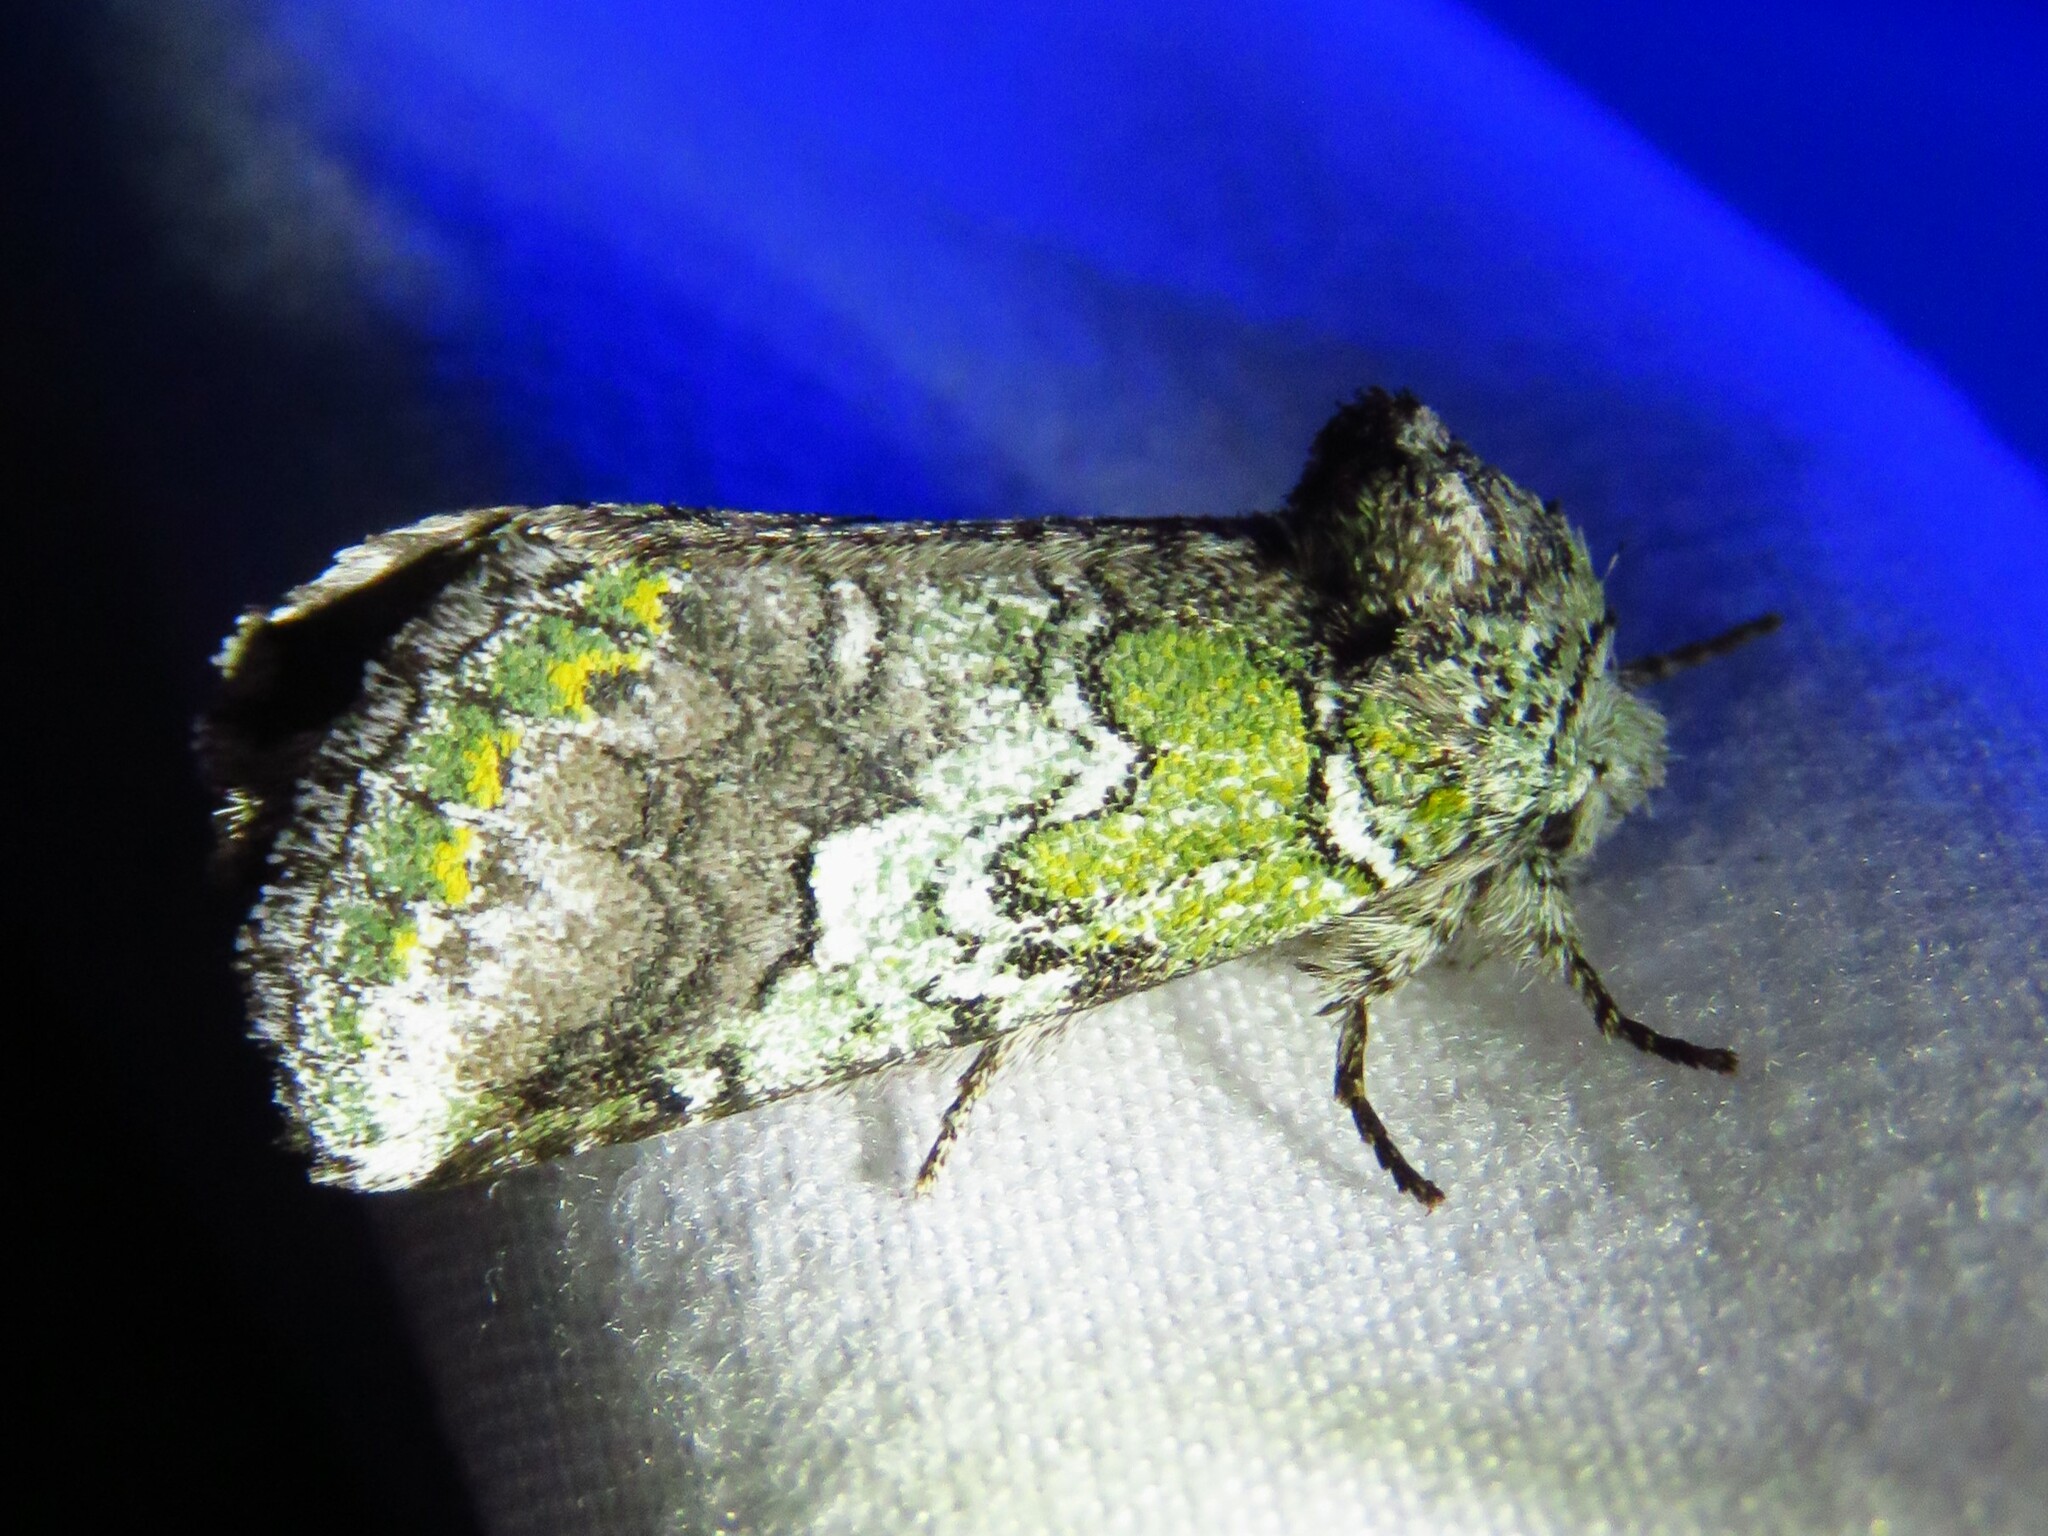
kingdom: Animalia
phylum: Arthropoda
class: Insecta
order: Lepidoptera
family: Notodontidae
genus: Litodonta
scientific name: Litodonta hydromeli
